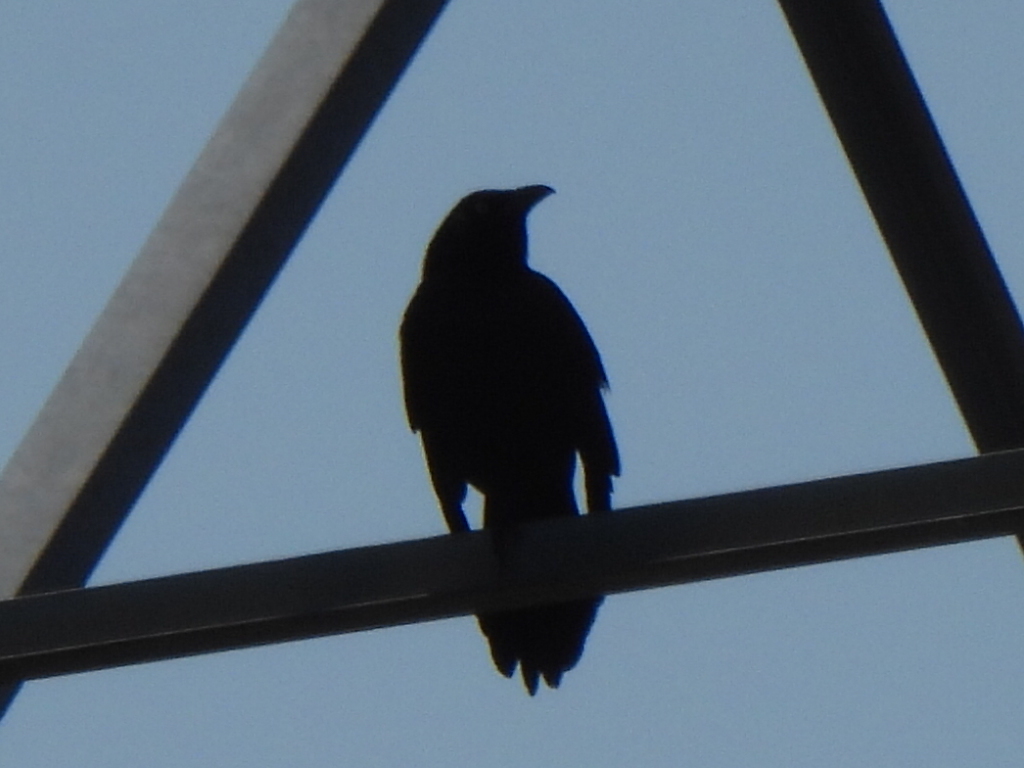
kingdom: Animalia
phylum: Chordata
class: Aves
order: Passeriformes
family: Icteridae
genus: Quiscalus
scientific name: Quiscalus mexicanus
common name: Great-tailed grackle
